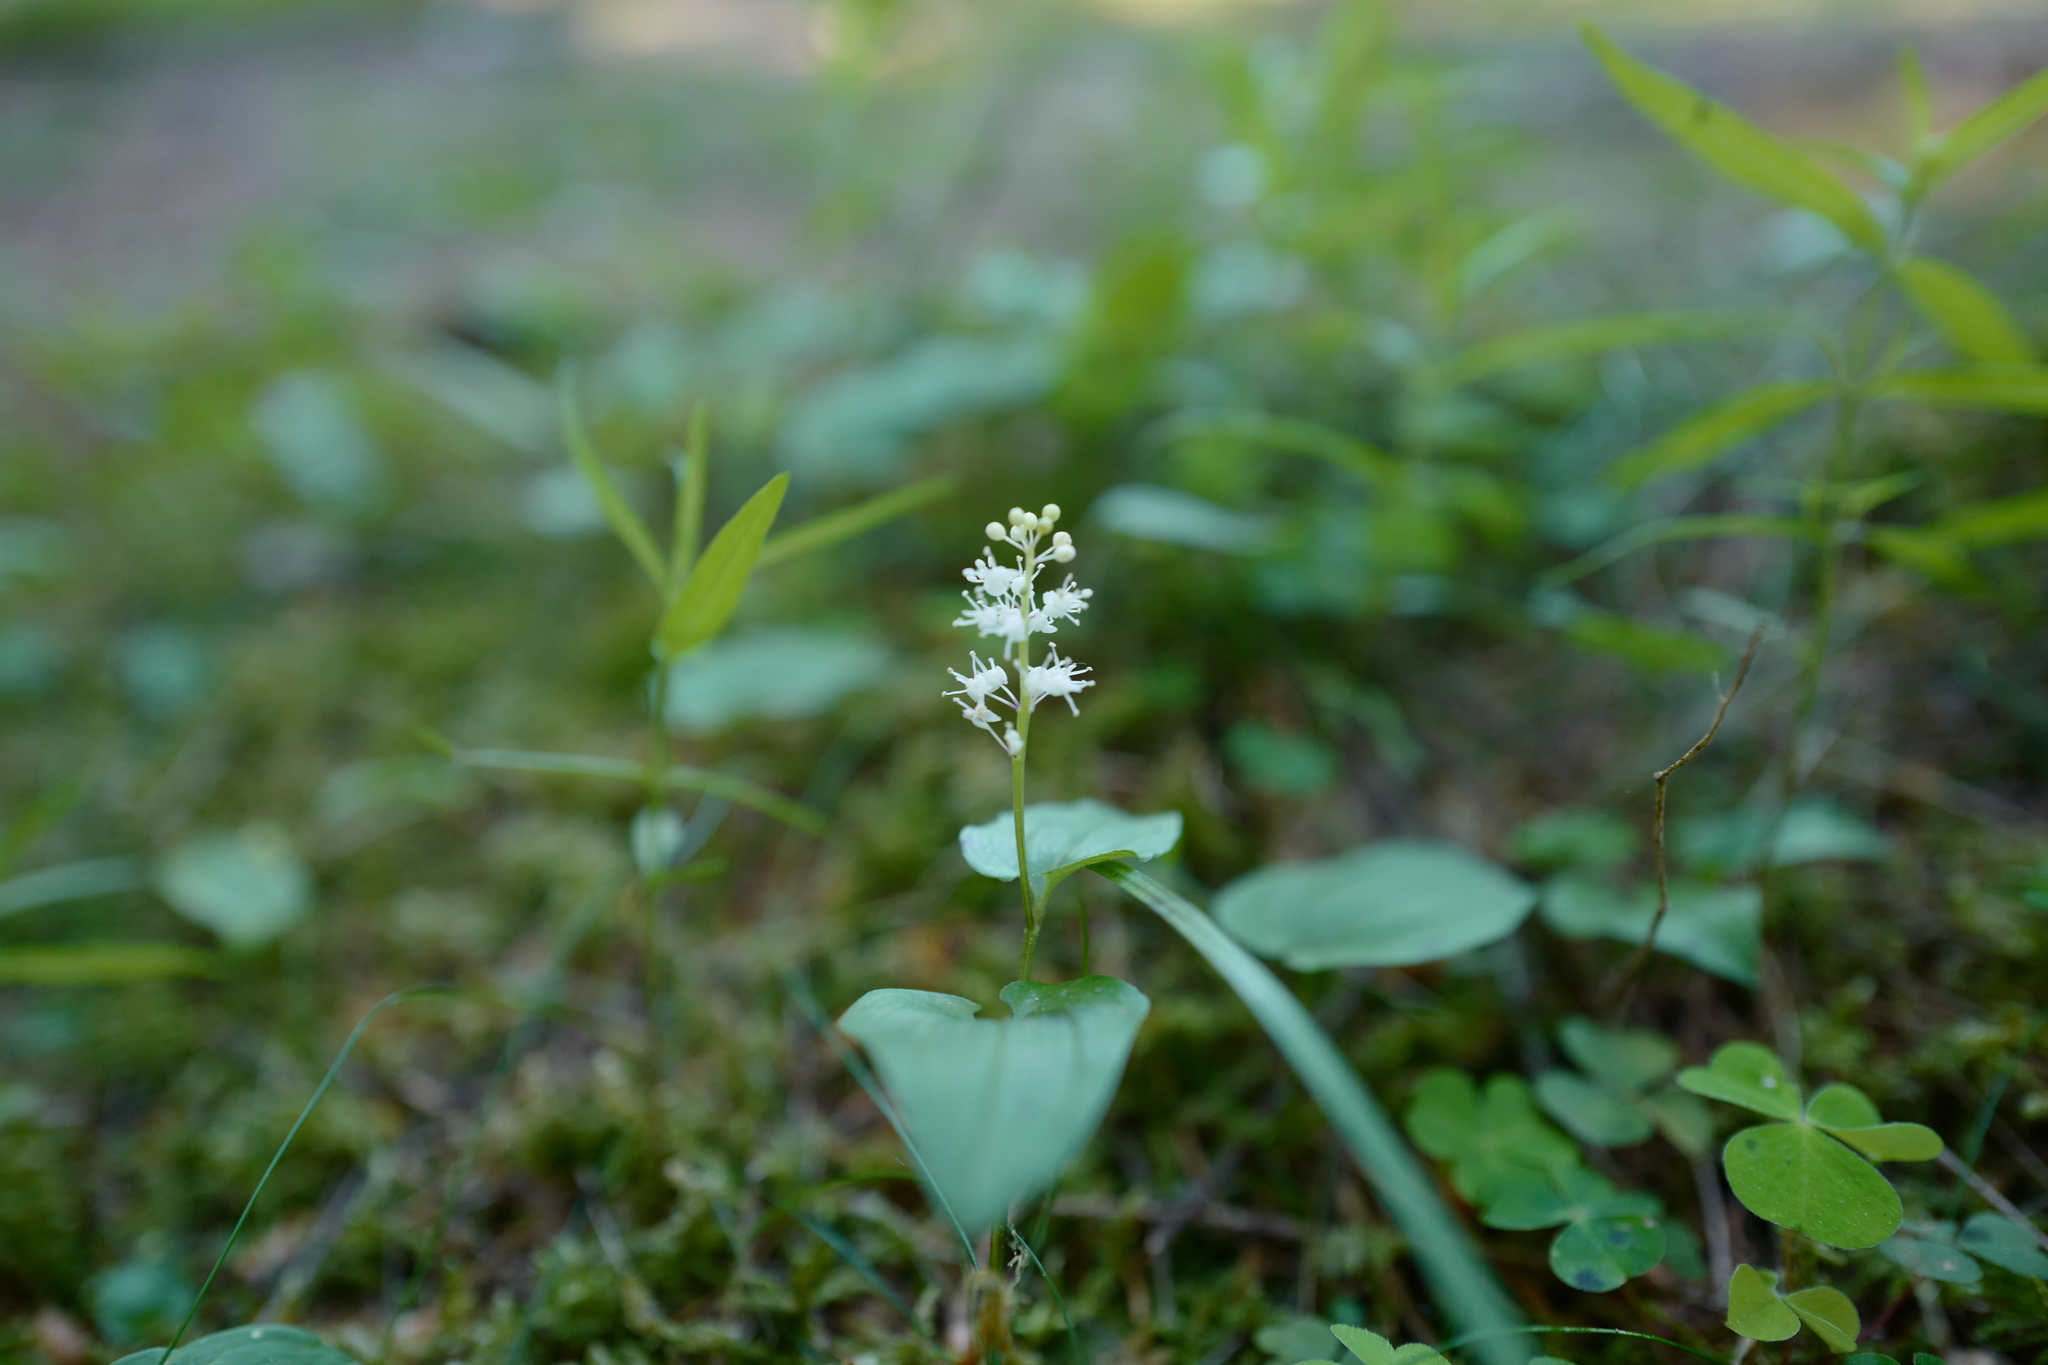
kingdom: Plantae
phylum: Tracheophyta
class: Liliopsida
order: Asparagales
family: Asparagaceae
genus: Maianthemum
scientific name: Maianthemum bifolium
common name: May lily
